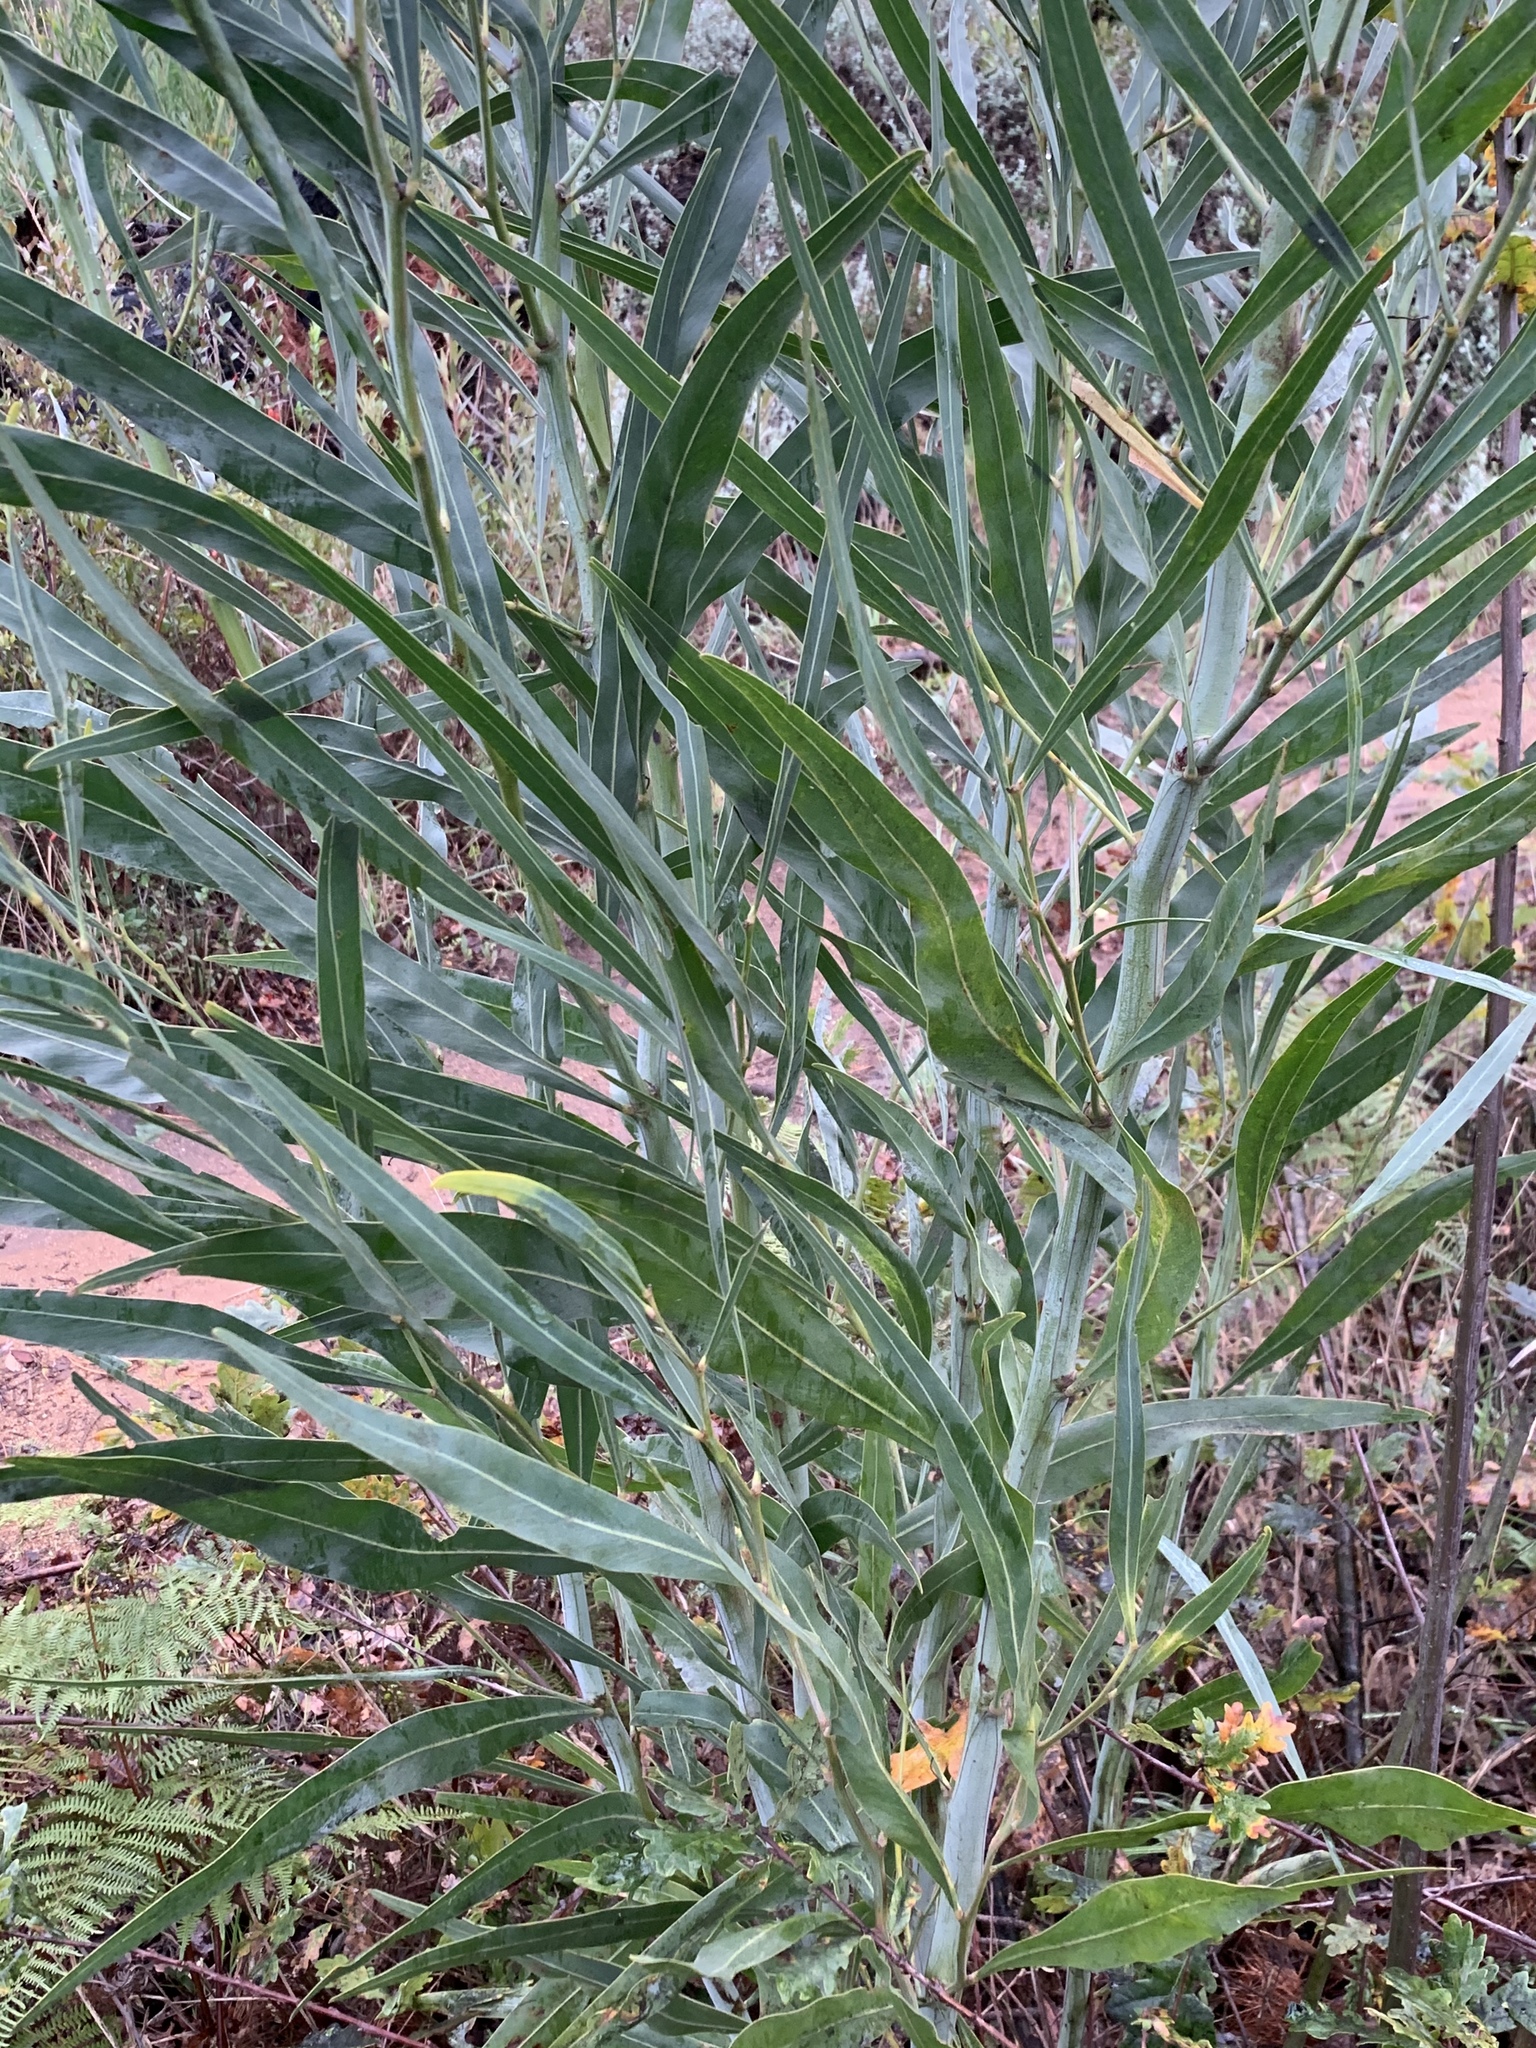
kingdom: Plantae
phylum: Tracheophyta
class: Magnoliopsida
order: Fabales
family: Fabaceae
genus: Acacia
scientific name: Acacia saligna
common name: Orange wattle
